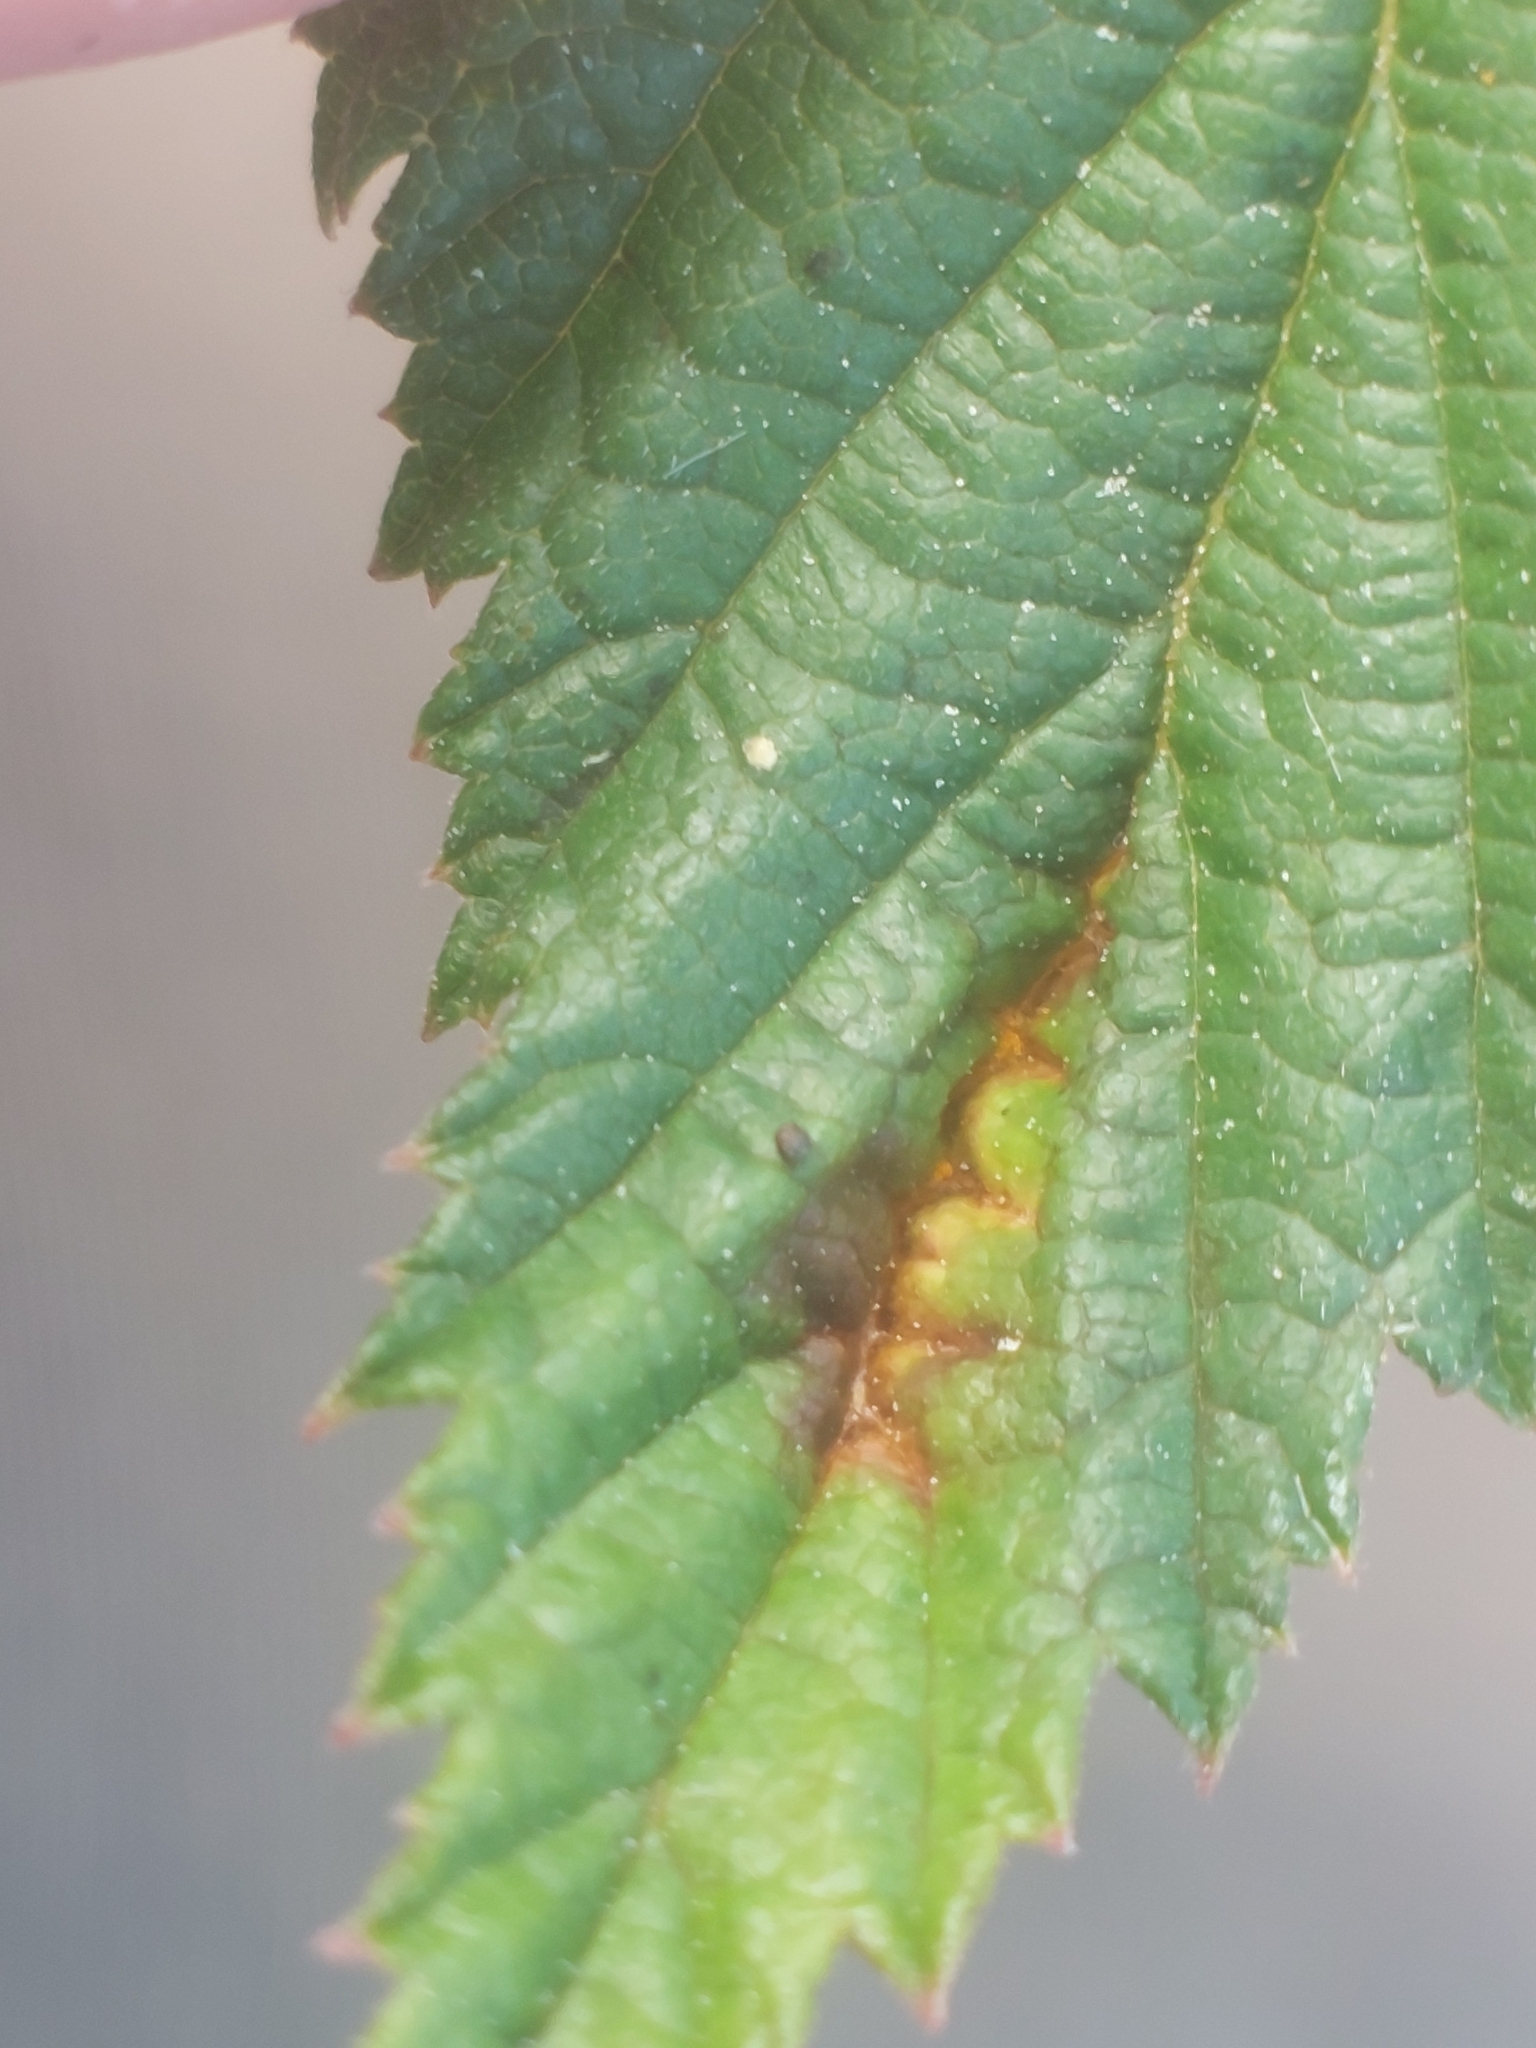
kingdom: Fungi
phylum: Basidiomycota
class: Pucciniomycetes
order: Pucciniales
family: Raveneliaceae
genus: Triphragmium
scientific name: Triphragmium ulmariae
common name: Meadowsweet rust
